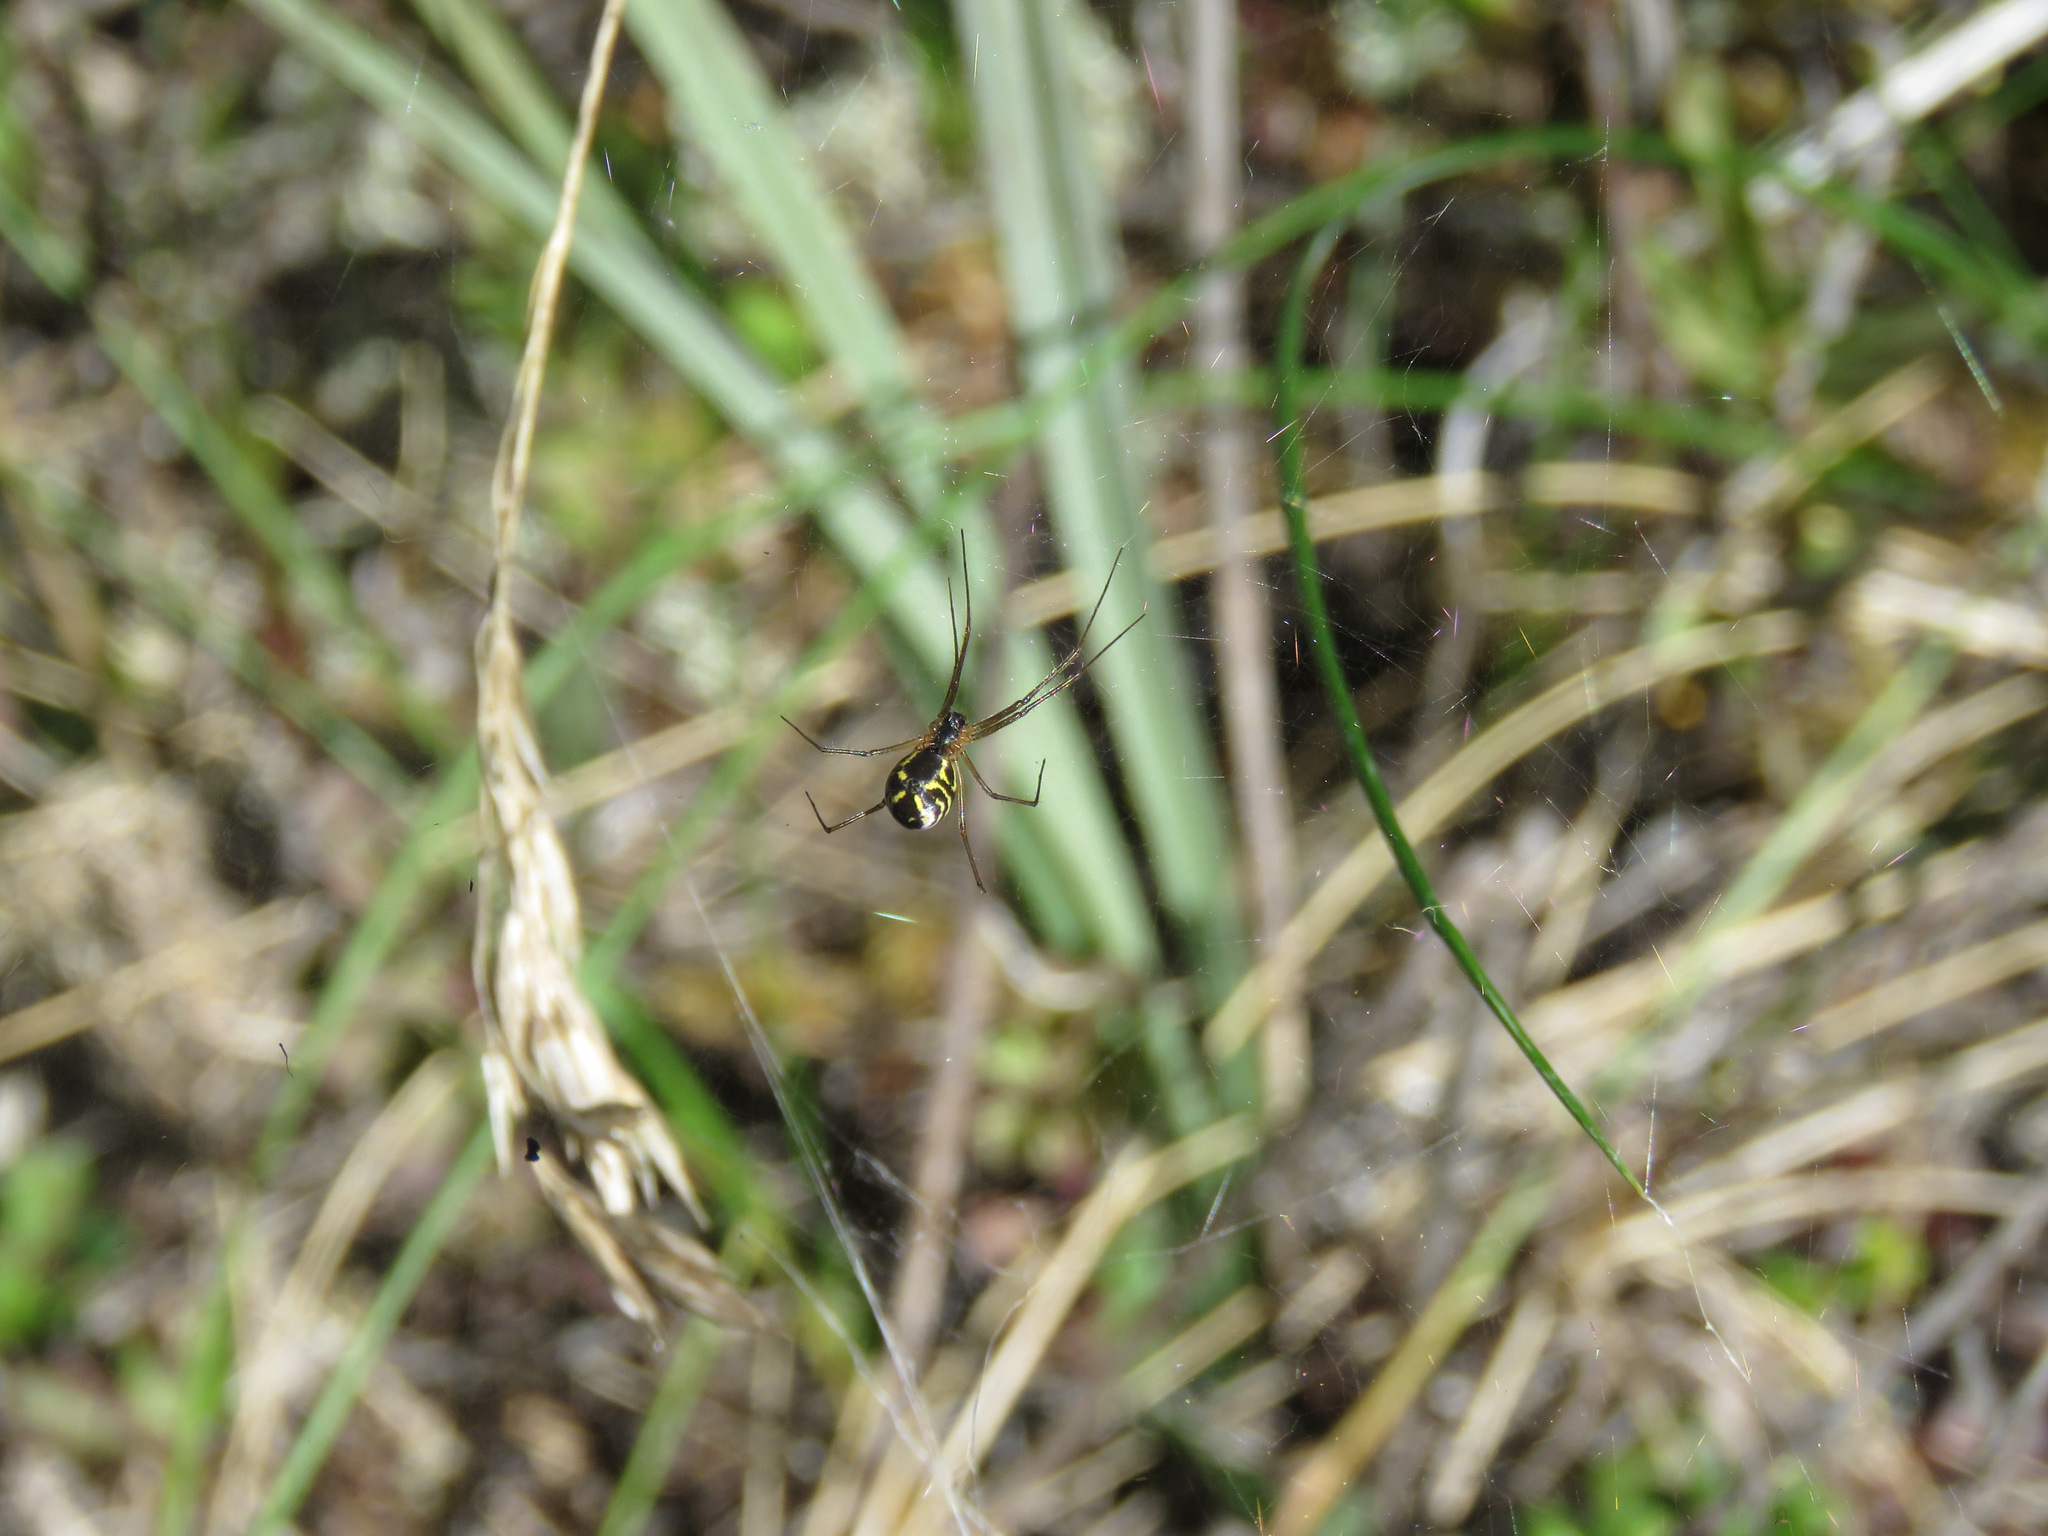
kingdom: Animalia
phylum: Arthropoda
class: Arachnida
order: Araneae
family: Linyphiidae
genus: Neriene
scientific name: Neriene radiata
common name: Filmy dome spider
